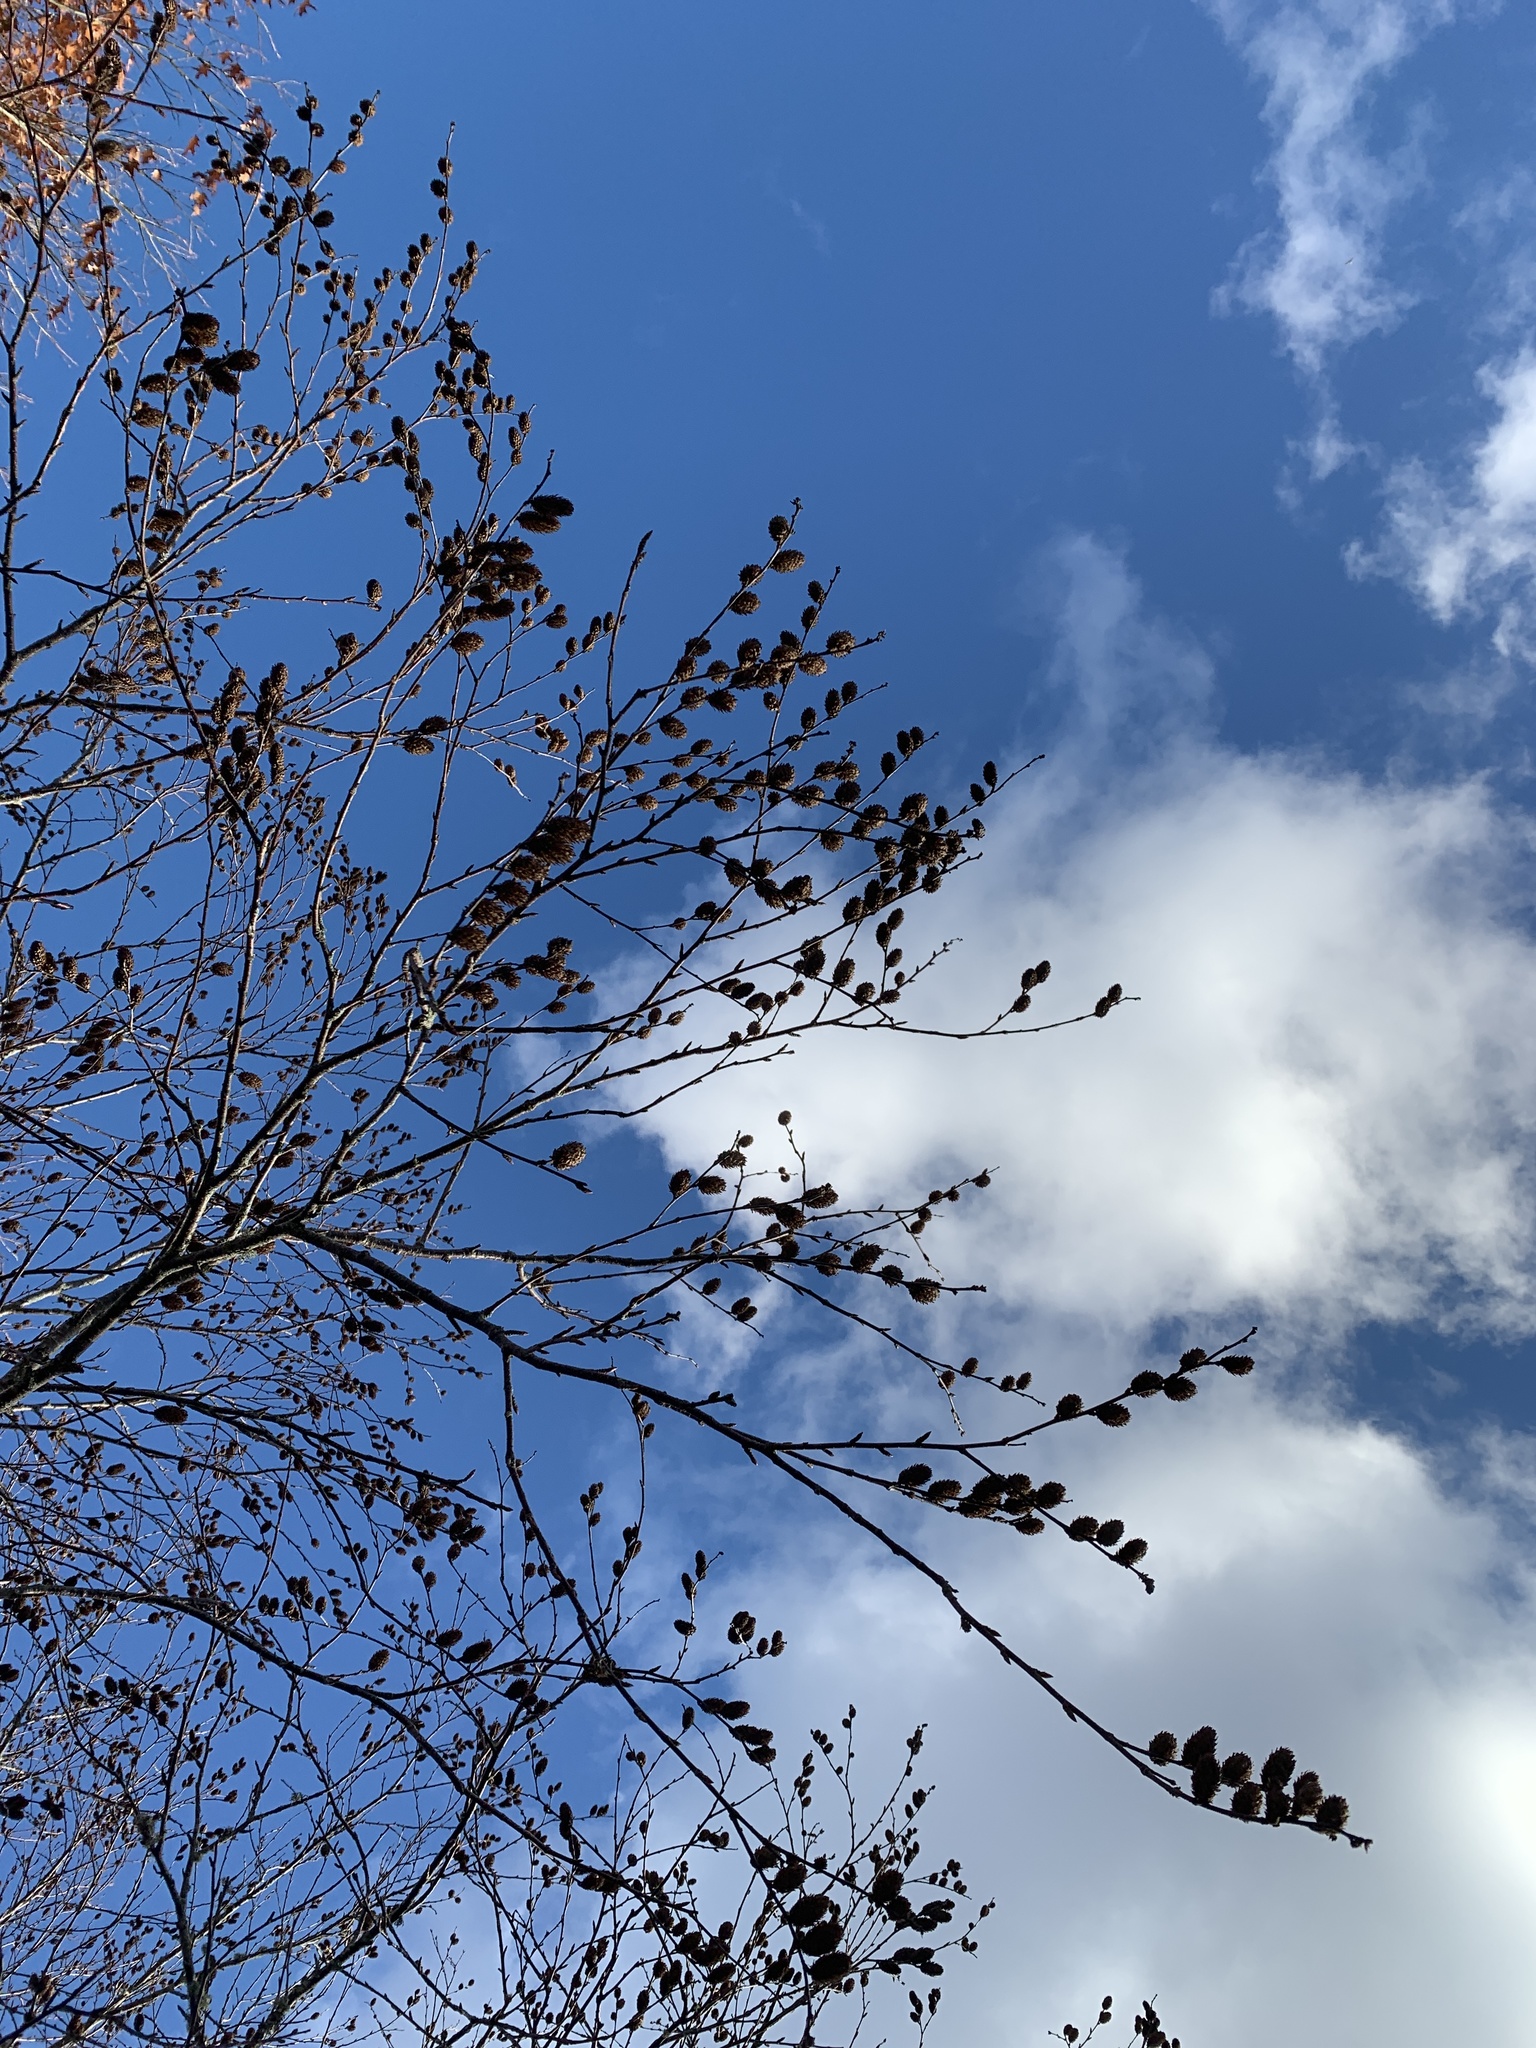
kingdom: Plantae
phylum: Tracheophyta
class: Magnoliopsida
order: Fagales
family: Betulaceae
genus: Betula
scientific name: Betula alleghaniensis
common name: Yellow birch
